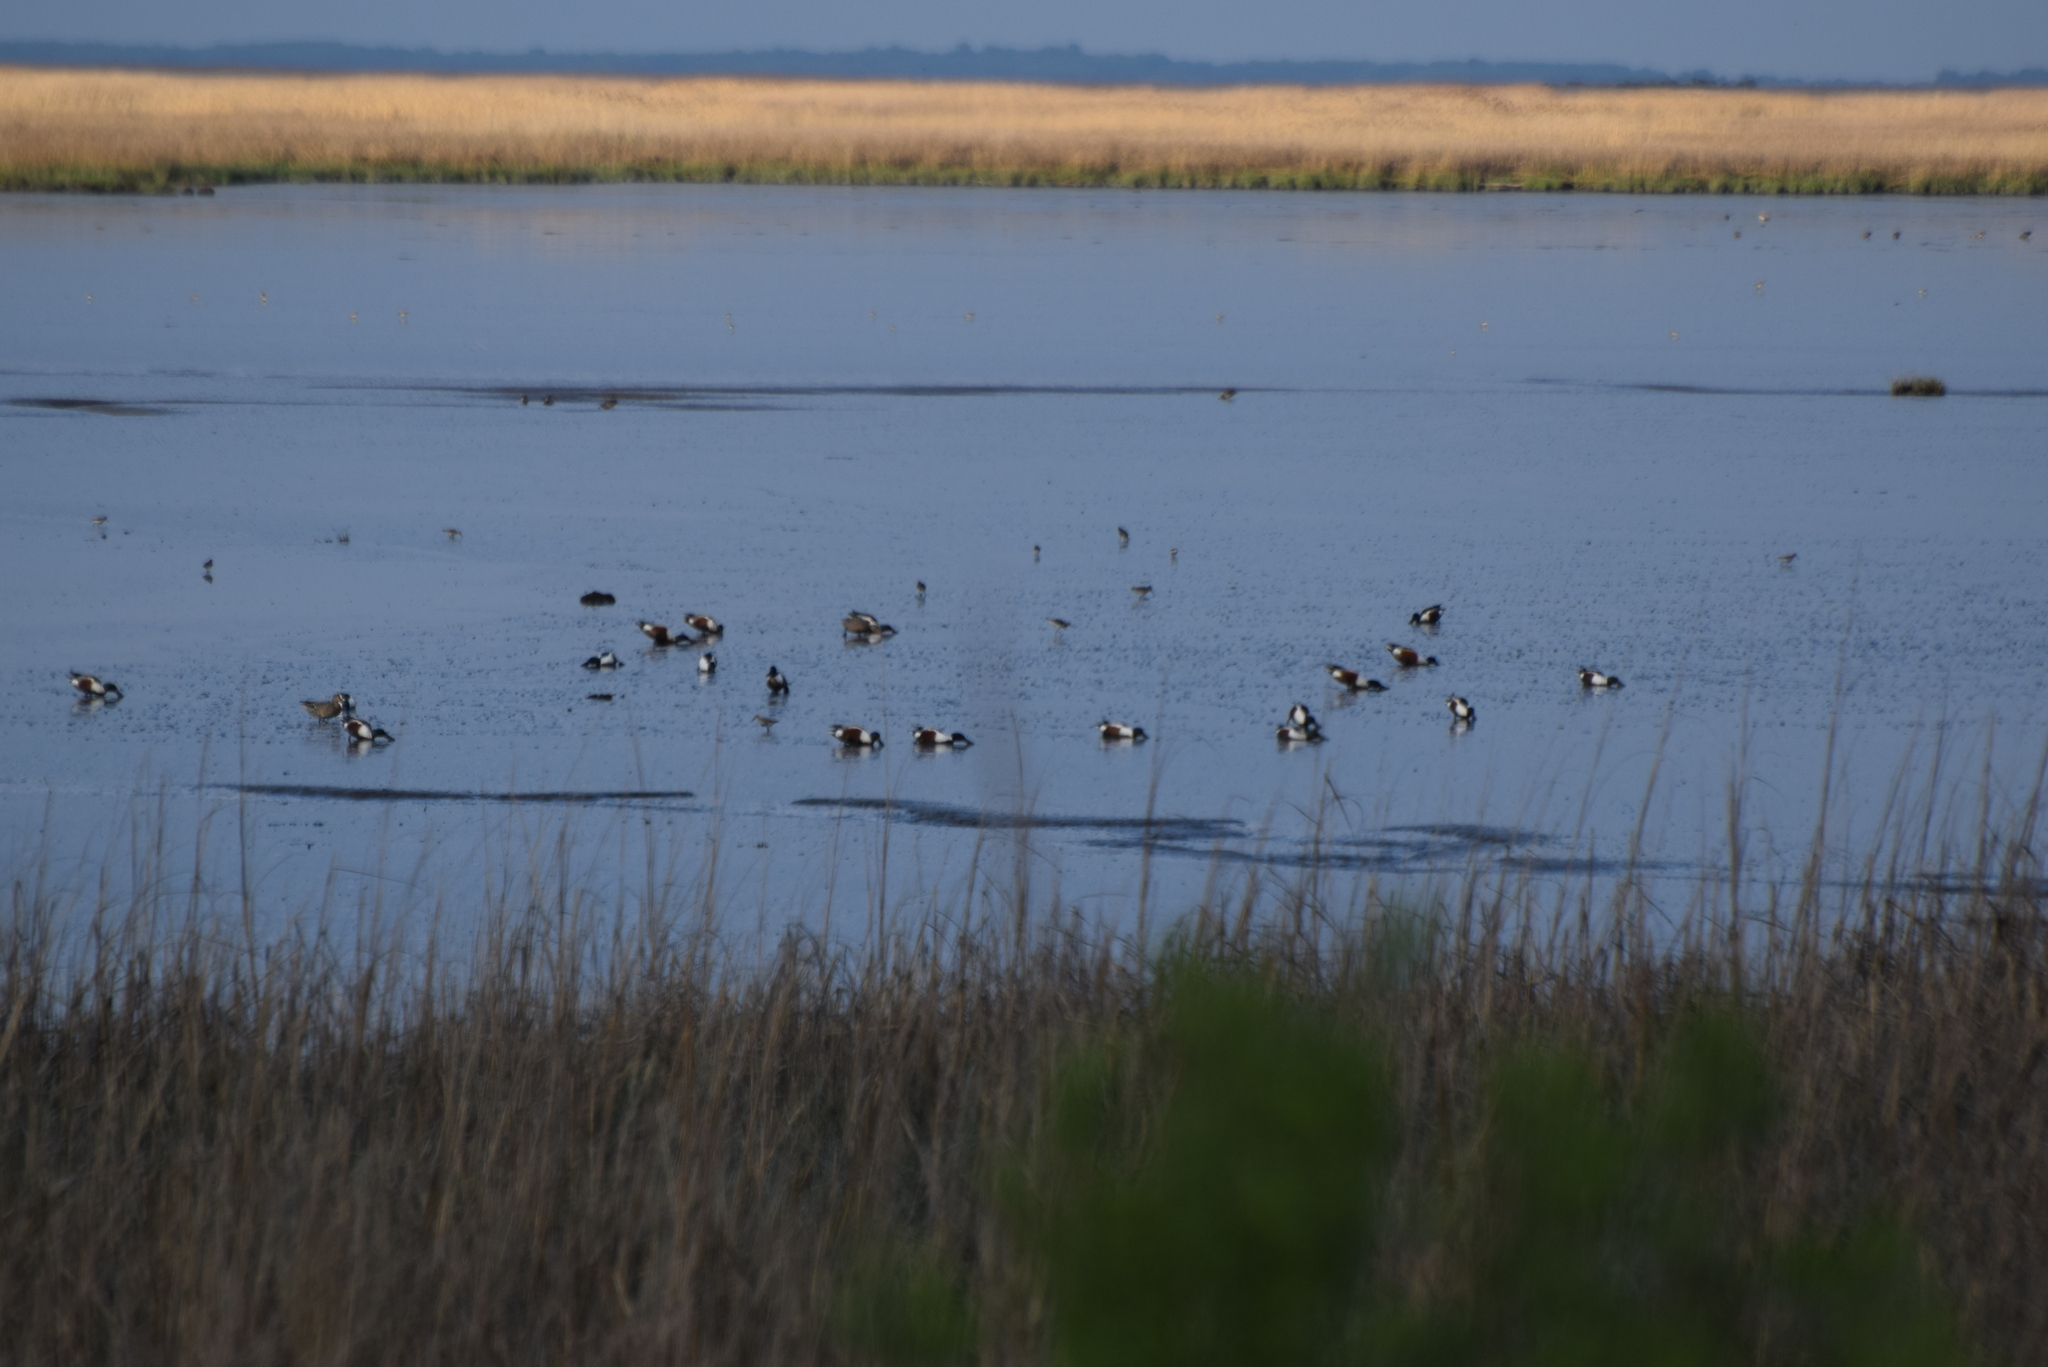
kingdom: Animalia
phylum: Chordata
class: Aves
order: Anseriformes
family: Anatidae
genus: Spatula
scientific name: Spatula clypeata
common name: Northern shoveler
